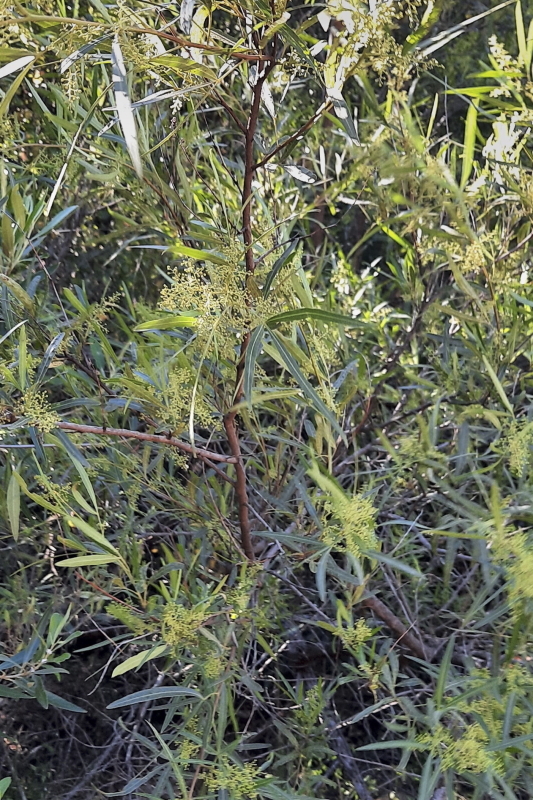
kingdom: Plantae
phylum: Tracheophyta
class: Magnoliopsida
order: Sapindales
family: Anacardiaceae
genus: Searsia
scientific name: Searsia lancea
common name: Cashew
